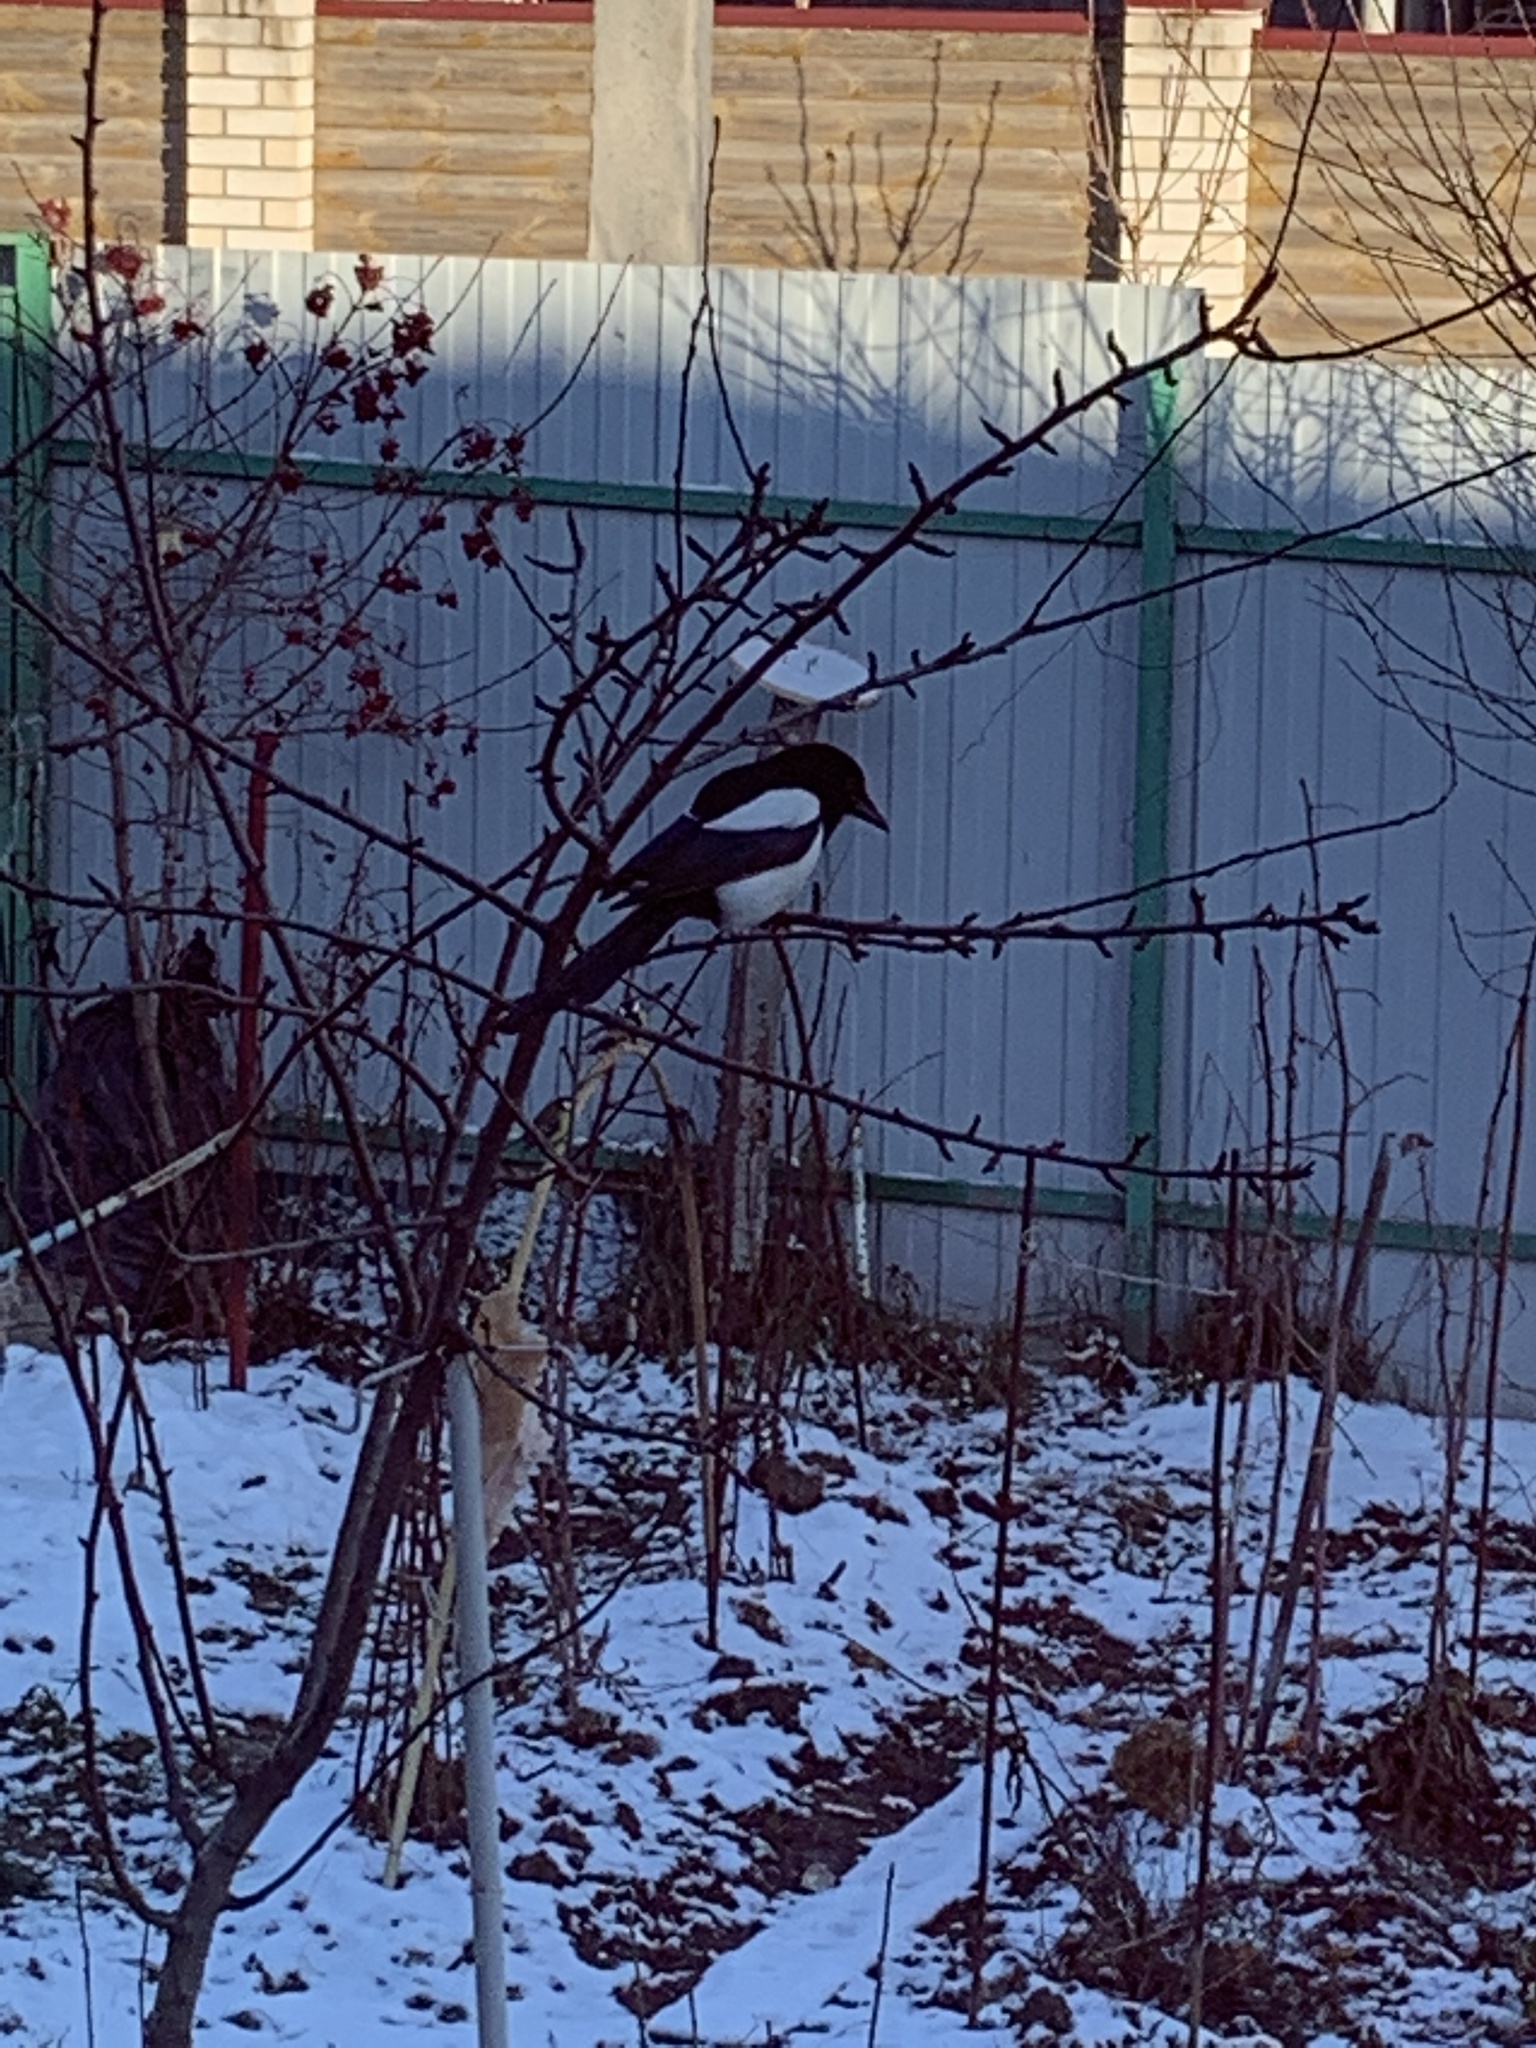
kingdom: Animalia
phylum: Chordata
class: Aves
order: Passeriformes
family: Corvidae
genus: Pica
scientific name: Pica pica
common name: Eurasian magpie
